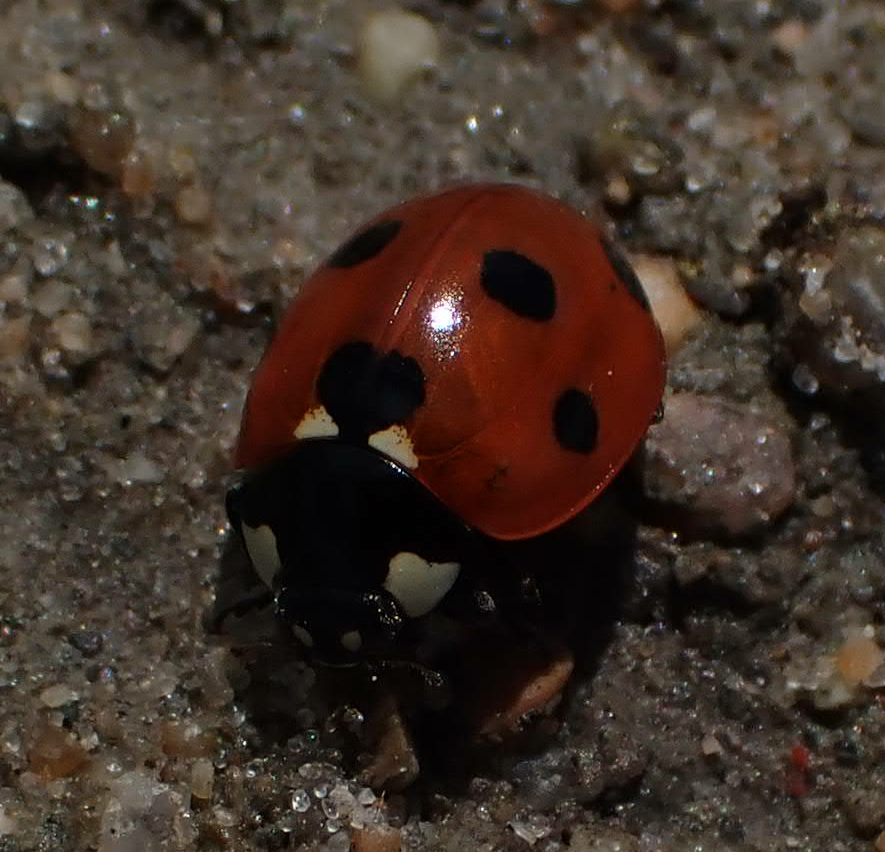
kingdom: Animalia
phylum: Arthropoda
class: Insecta
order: Coleoptera
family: Coccinellidae
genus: Coccinella
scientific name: Coccinella septempunctata
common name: Sevenspotted lady beetle
